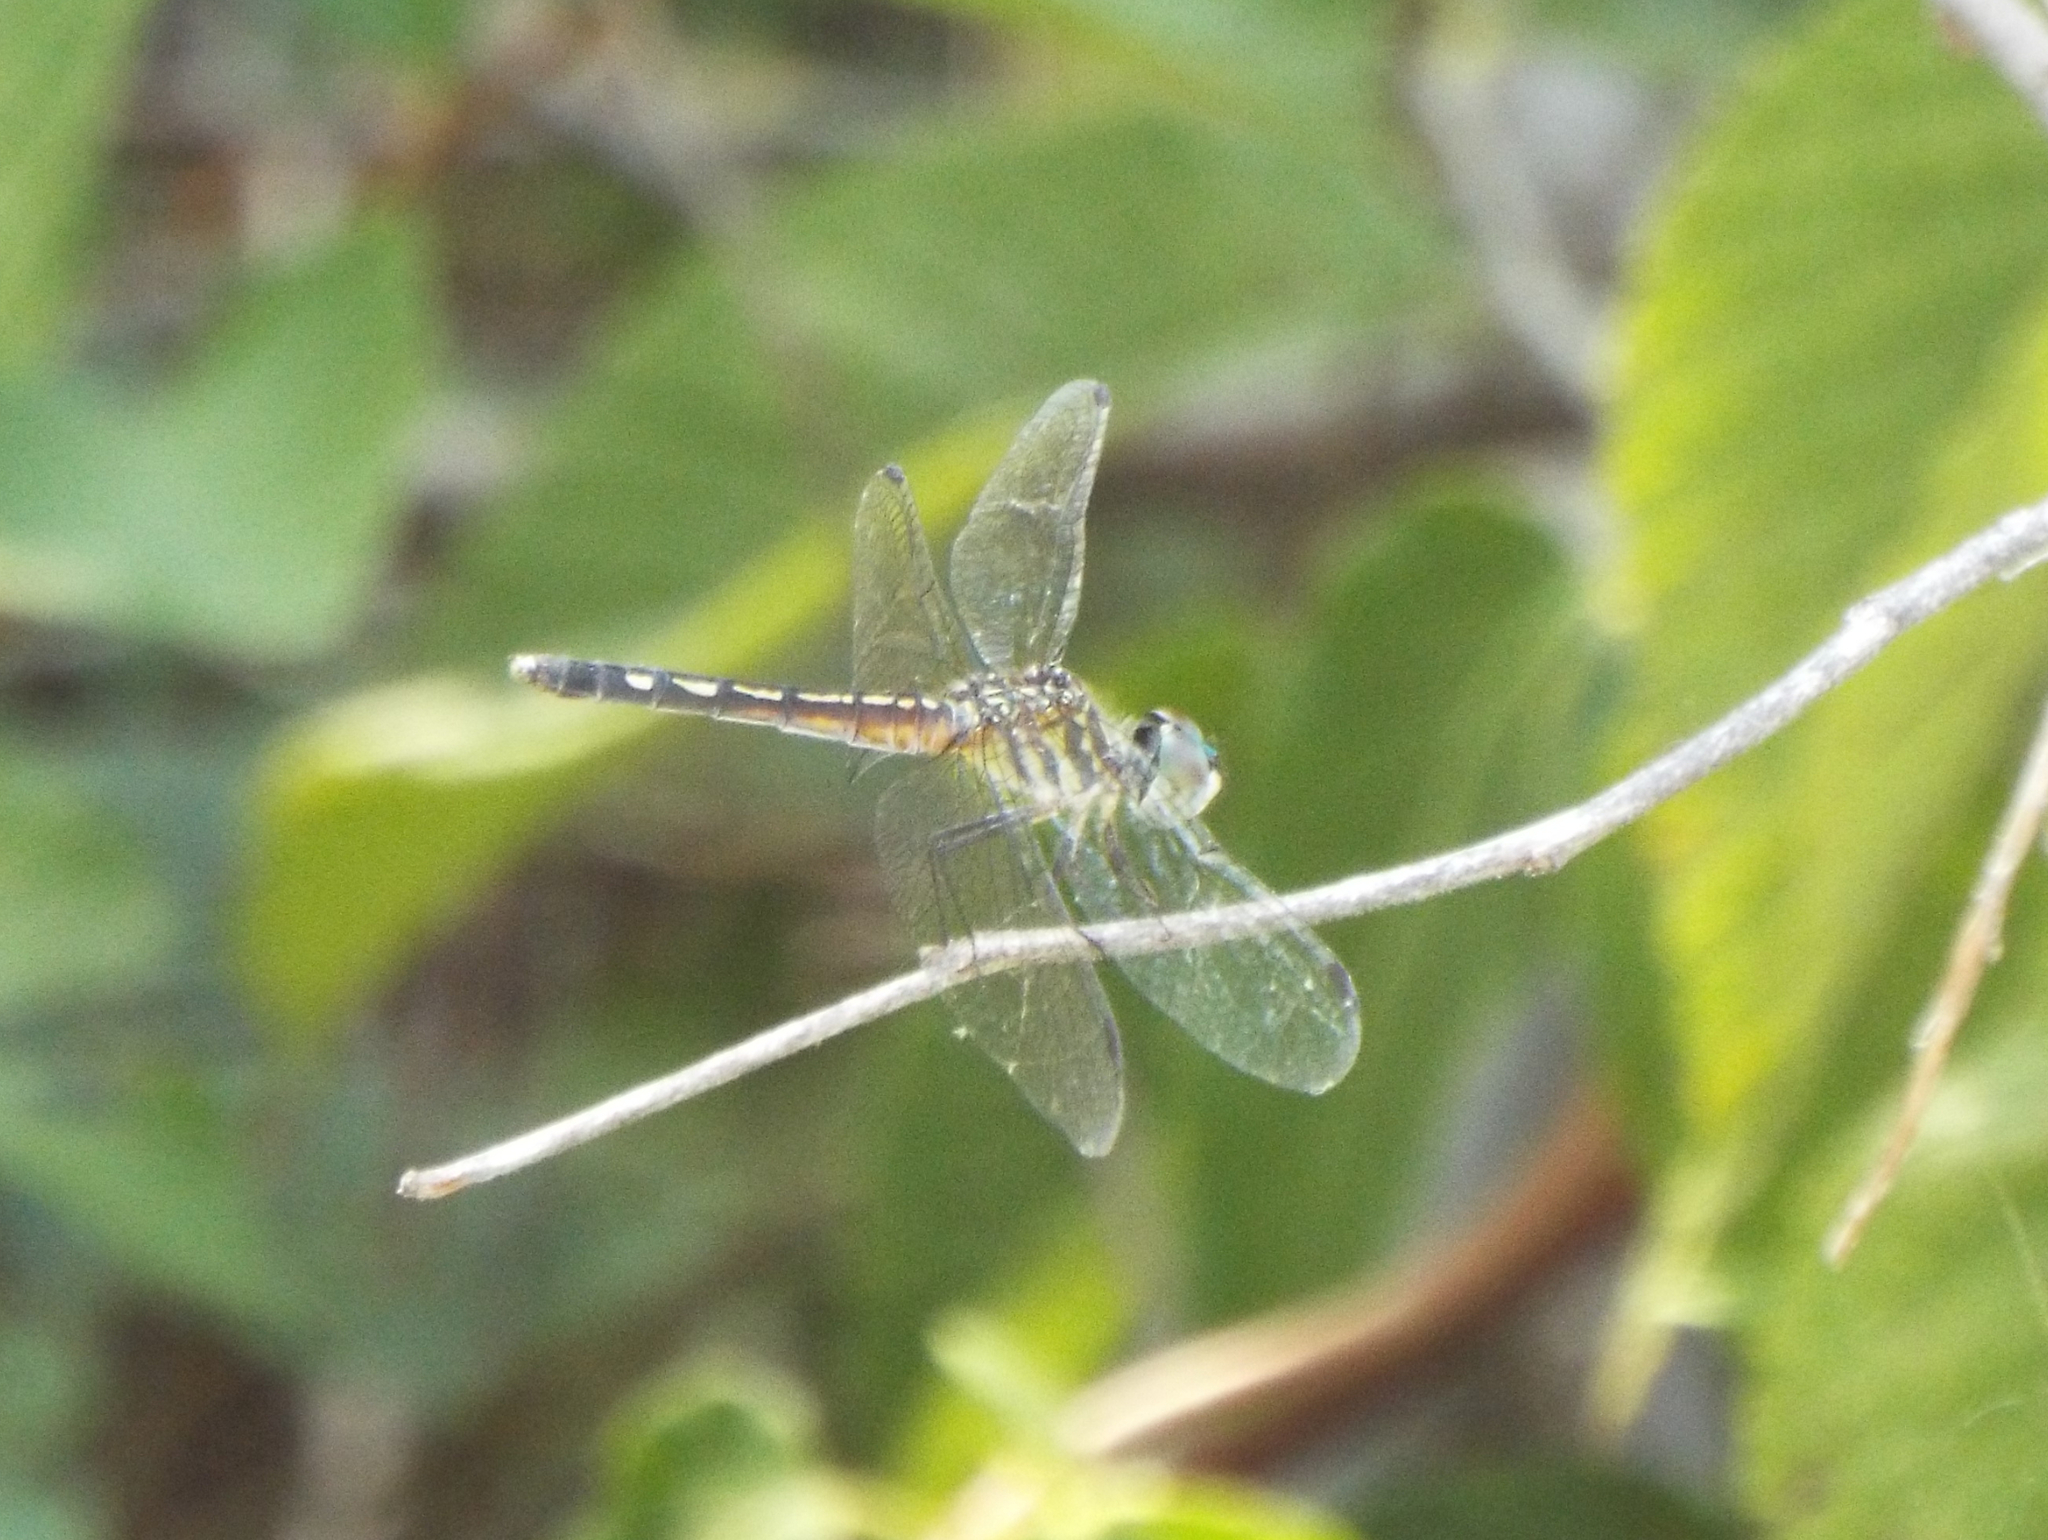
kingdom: Animalia
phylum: Arthropoda
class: Insecta
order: Odonata
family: Libellulidae
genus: Pachydiplax
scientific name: Pachydiplax longipennis
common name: Blue dasher
